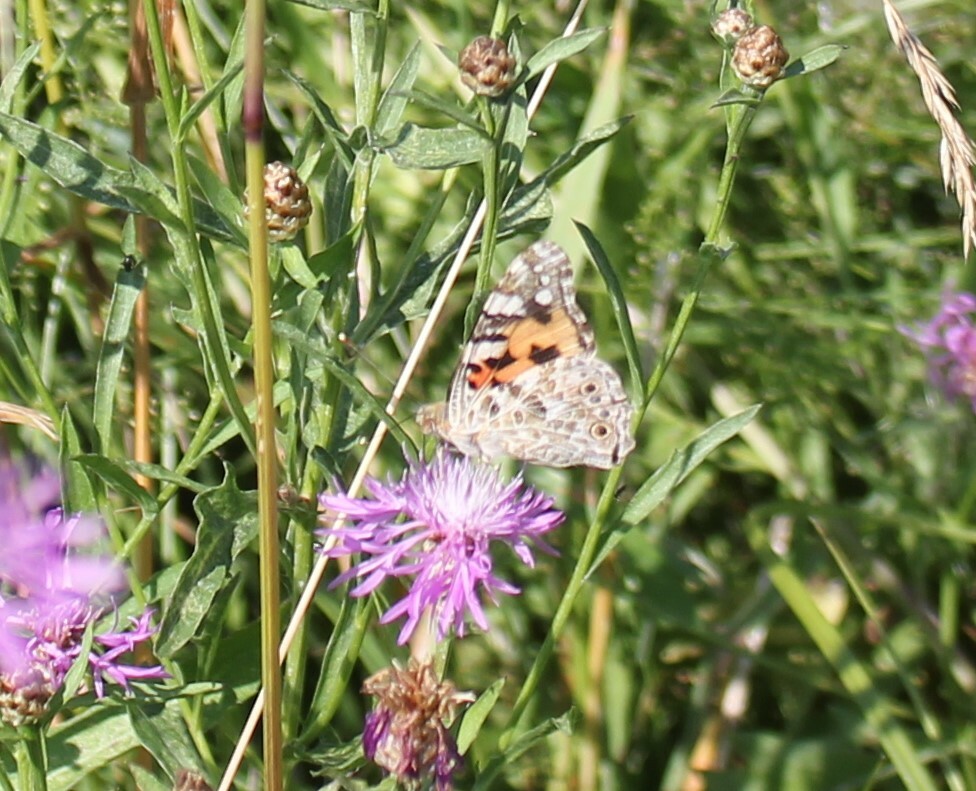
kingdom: Animalia
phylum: Arthropoda
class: Insecta
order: Lepidoptera
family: Nymphalidae
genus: Vanessa
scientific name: Vanessa cardui
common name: Painted lady
